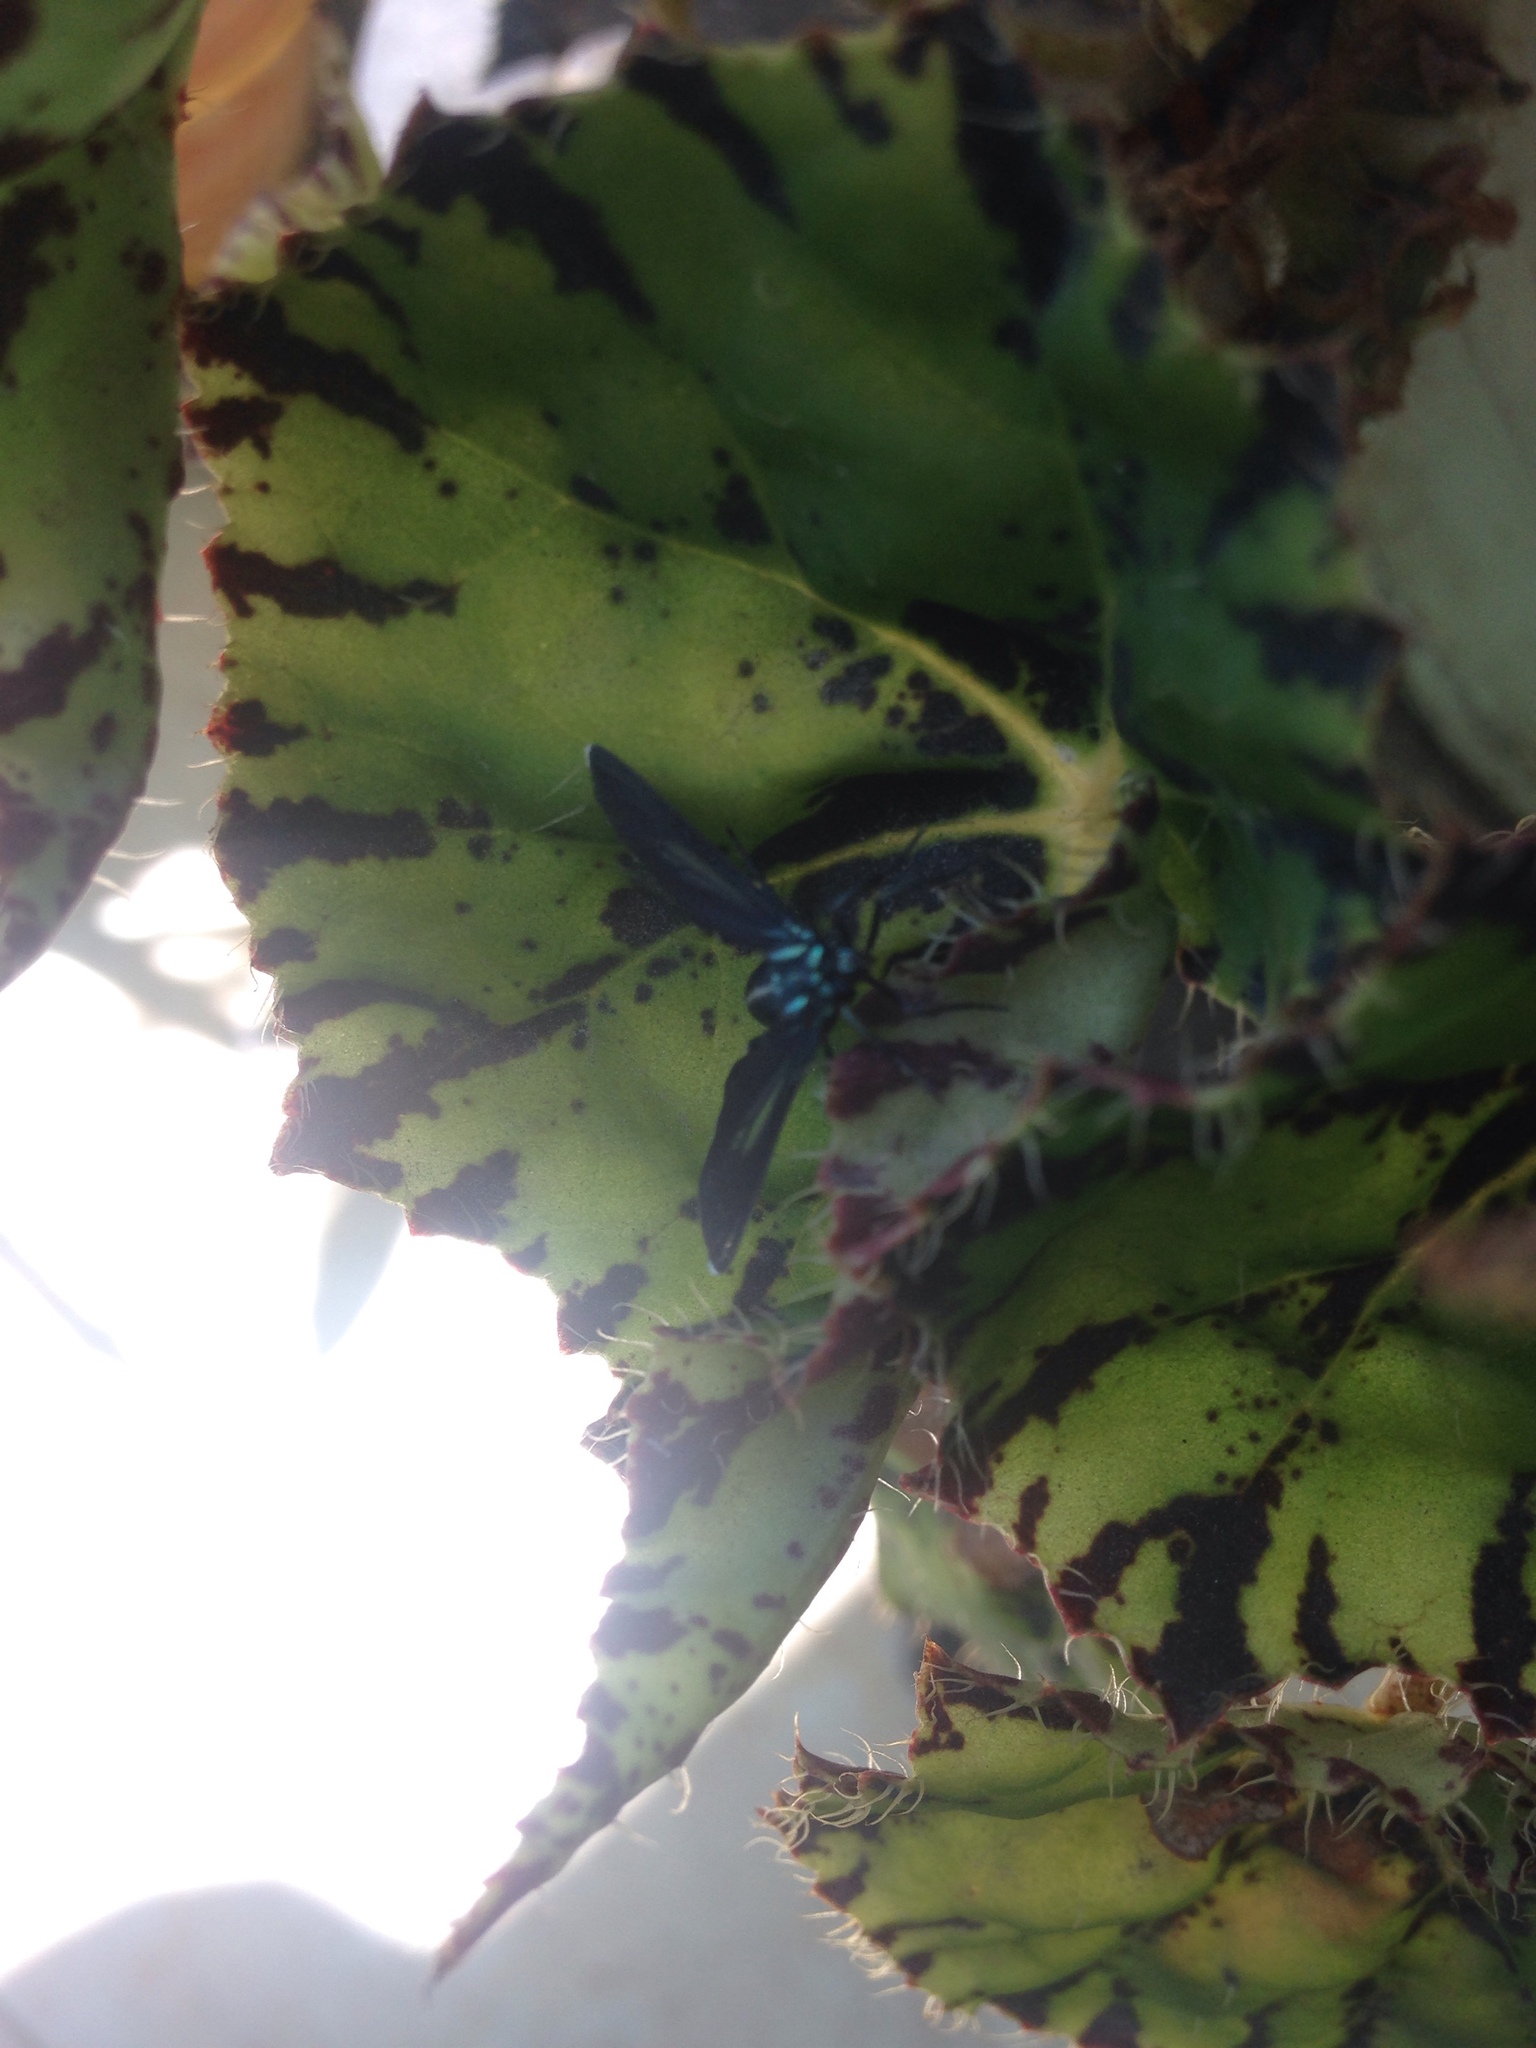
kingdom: Animalia
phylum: Arthropoda
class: Insecta
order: Lepidoptera
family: Erebidae
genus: Uranophora
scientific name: Uranophora leucotela
